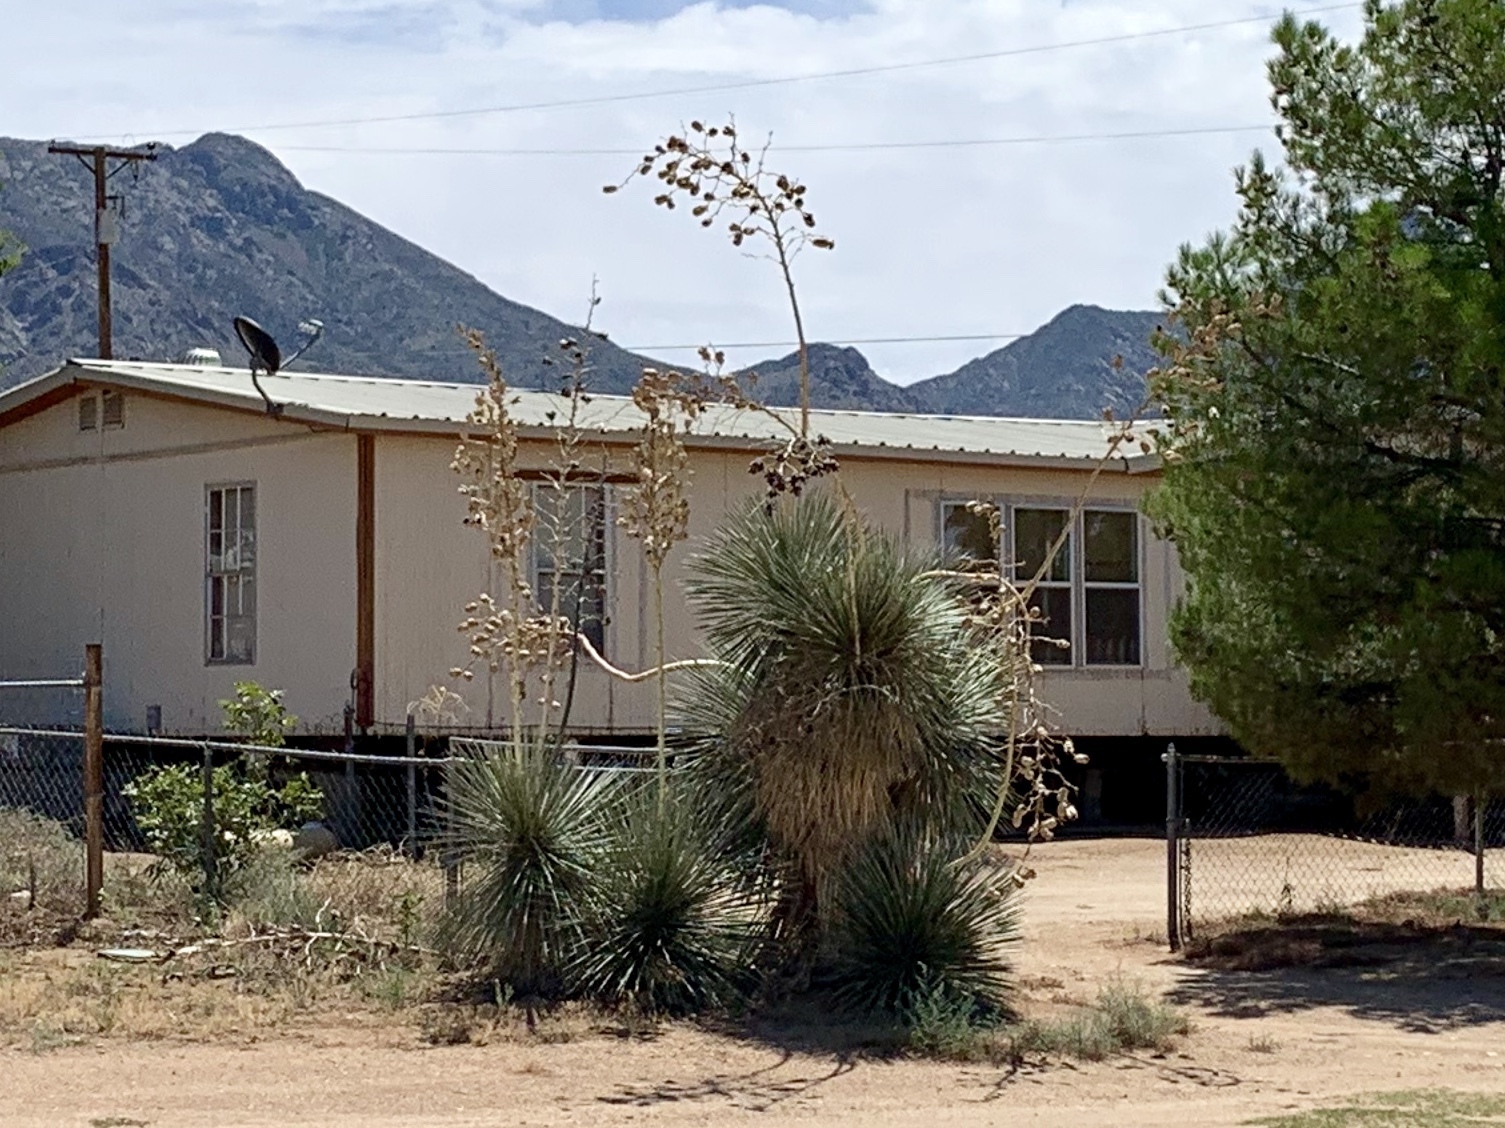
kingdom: Plantae
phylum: Tracheophyta
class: Liliopsida
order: Asparagales
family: Asparagaceae
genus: Yucca
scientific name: Yucca elata
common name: Palmella
